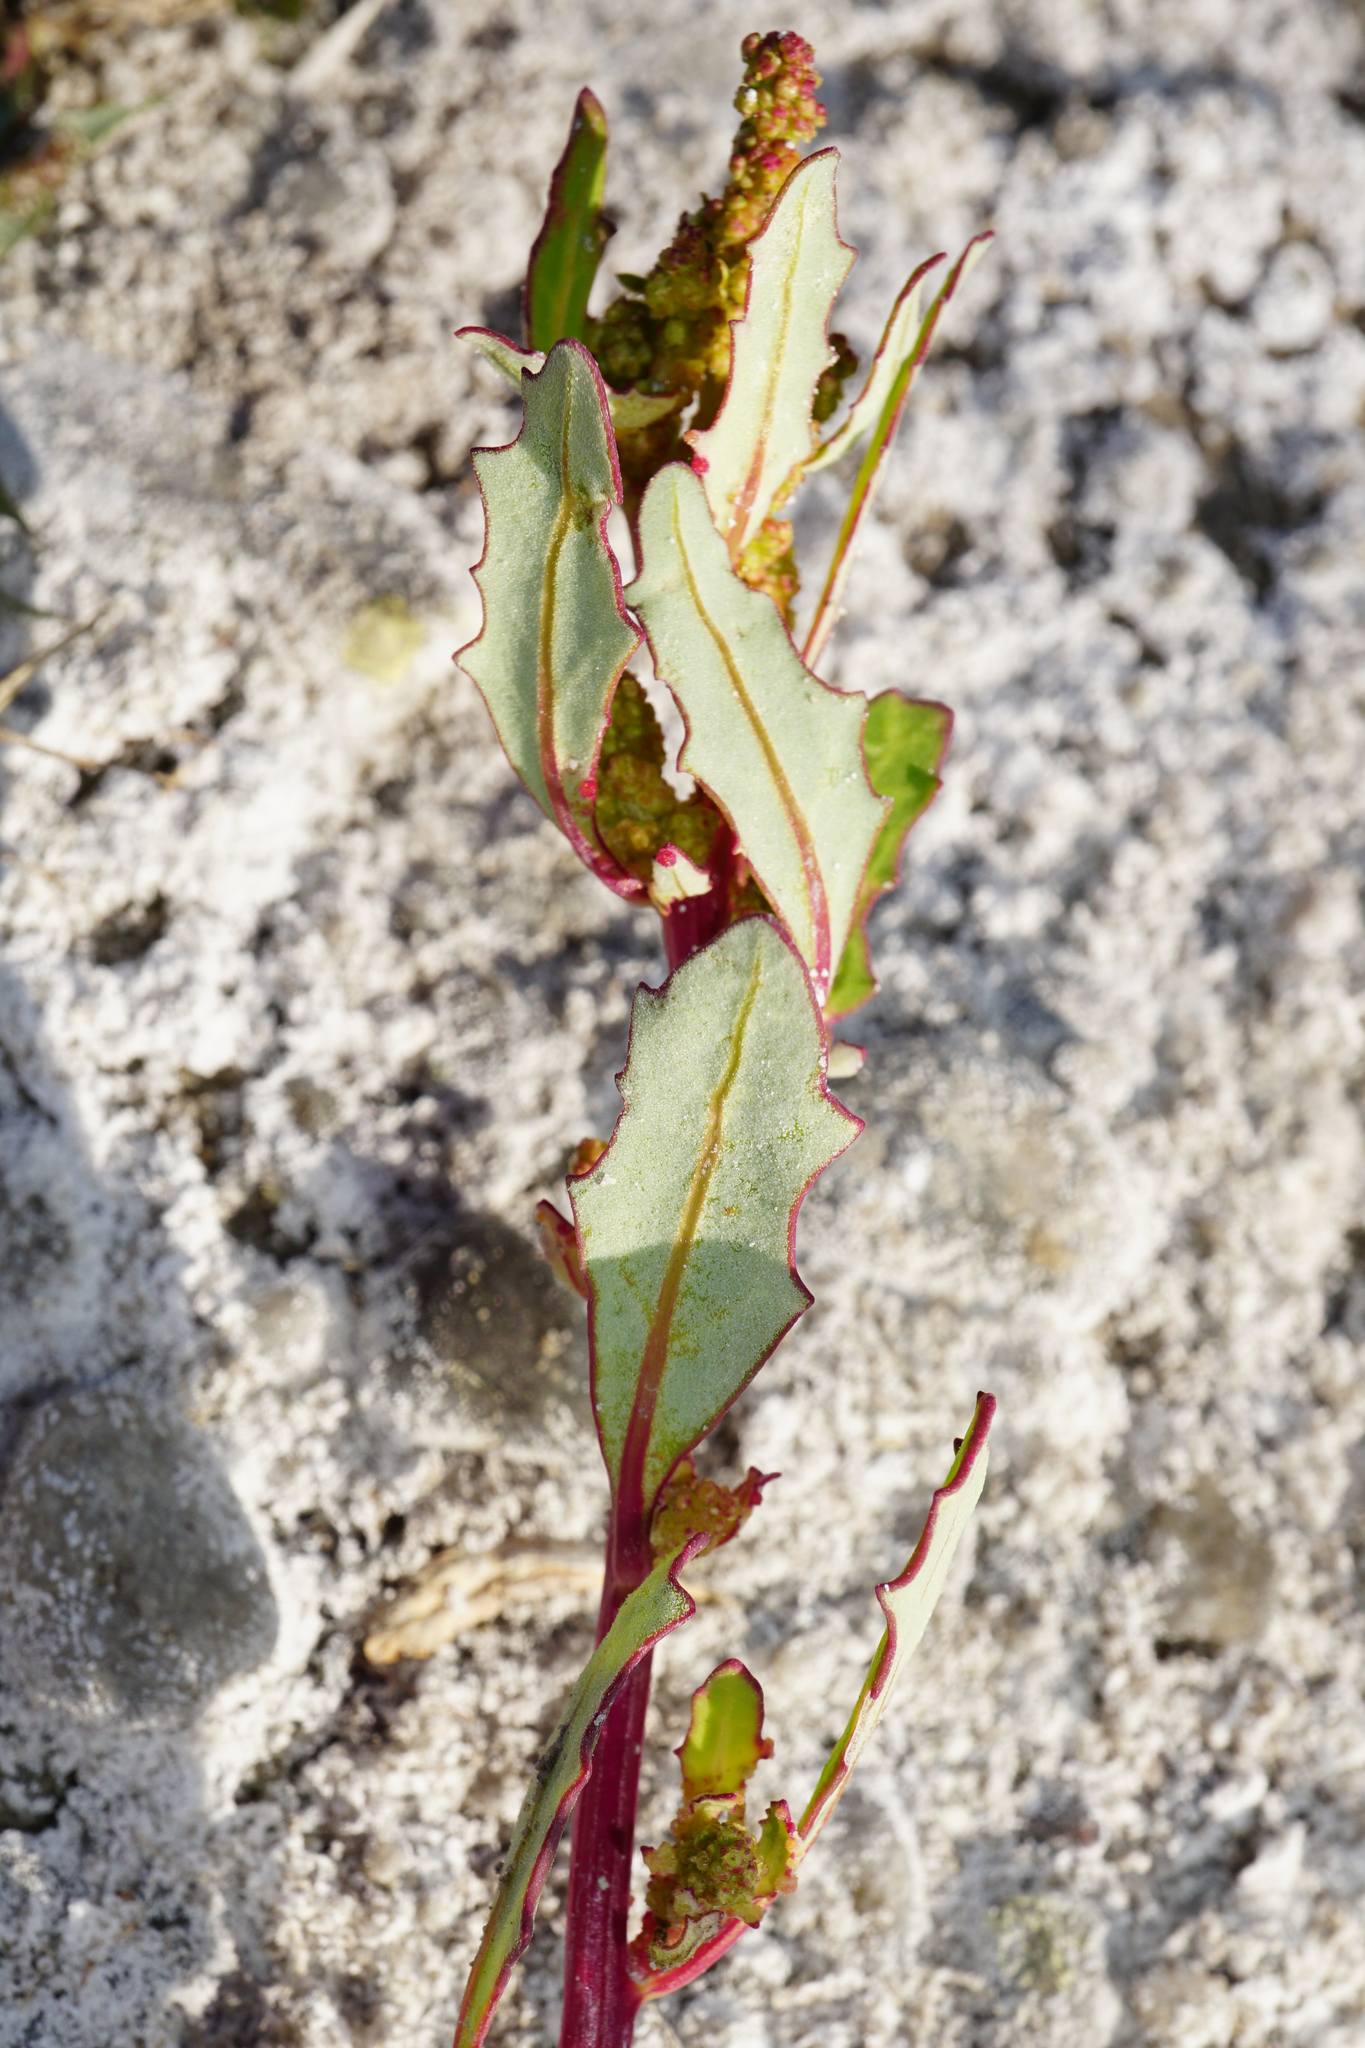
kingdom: Plantae
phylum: Tracheophyta
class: Magnoliopsida
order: Caryophyllales
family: Amaranthaceae
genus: Oxybasis
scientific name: Oxybasis glauca
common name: Glaucous goosefoot
